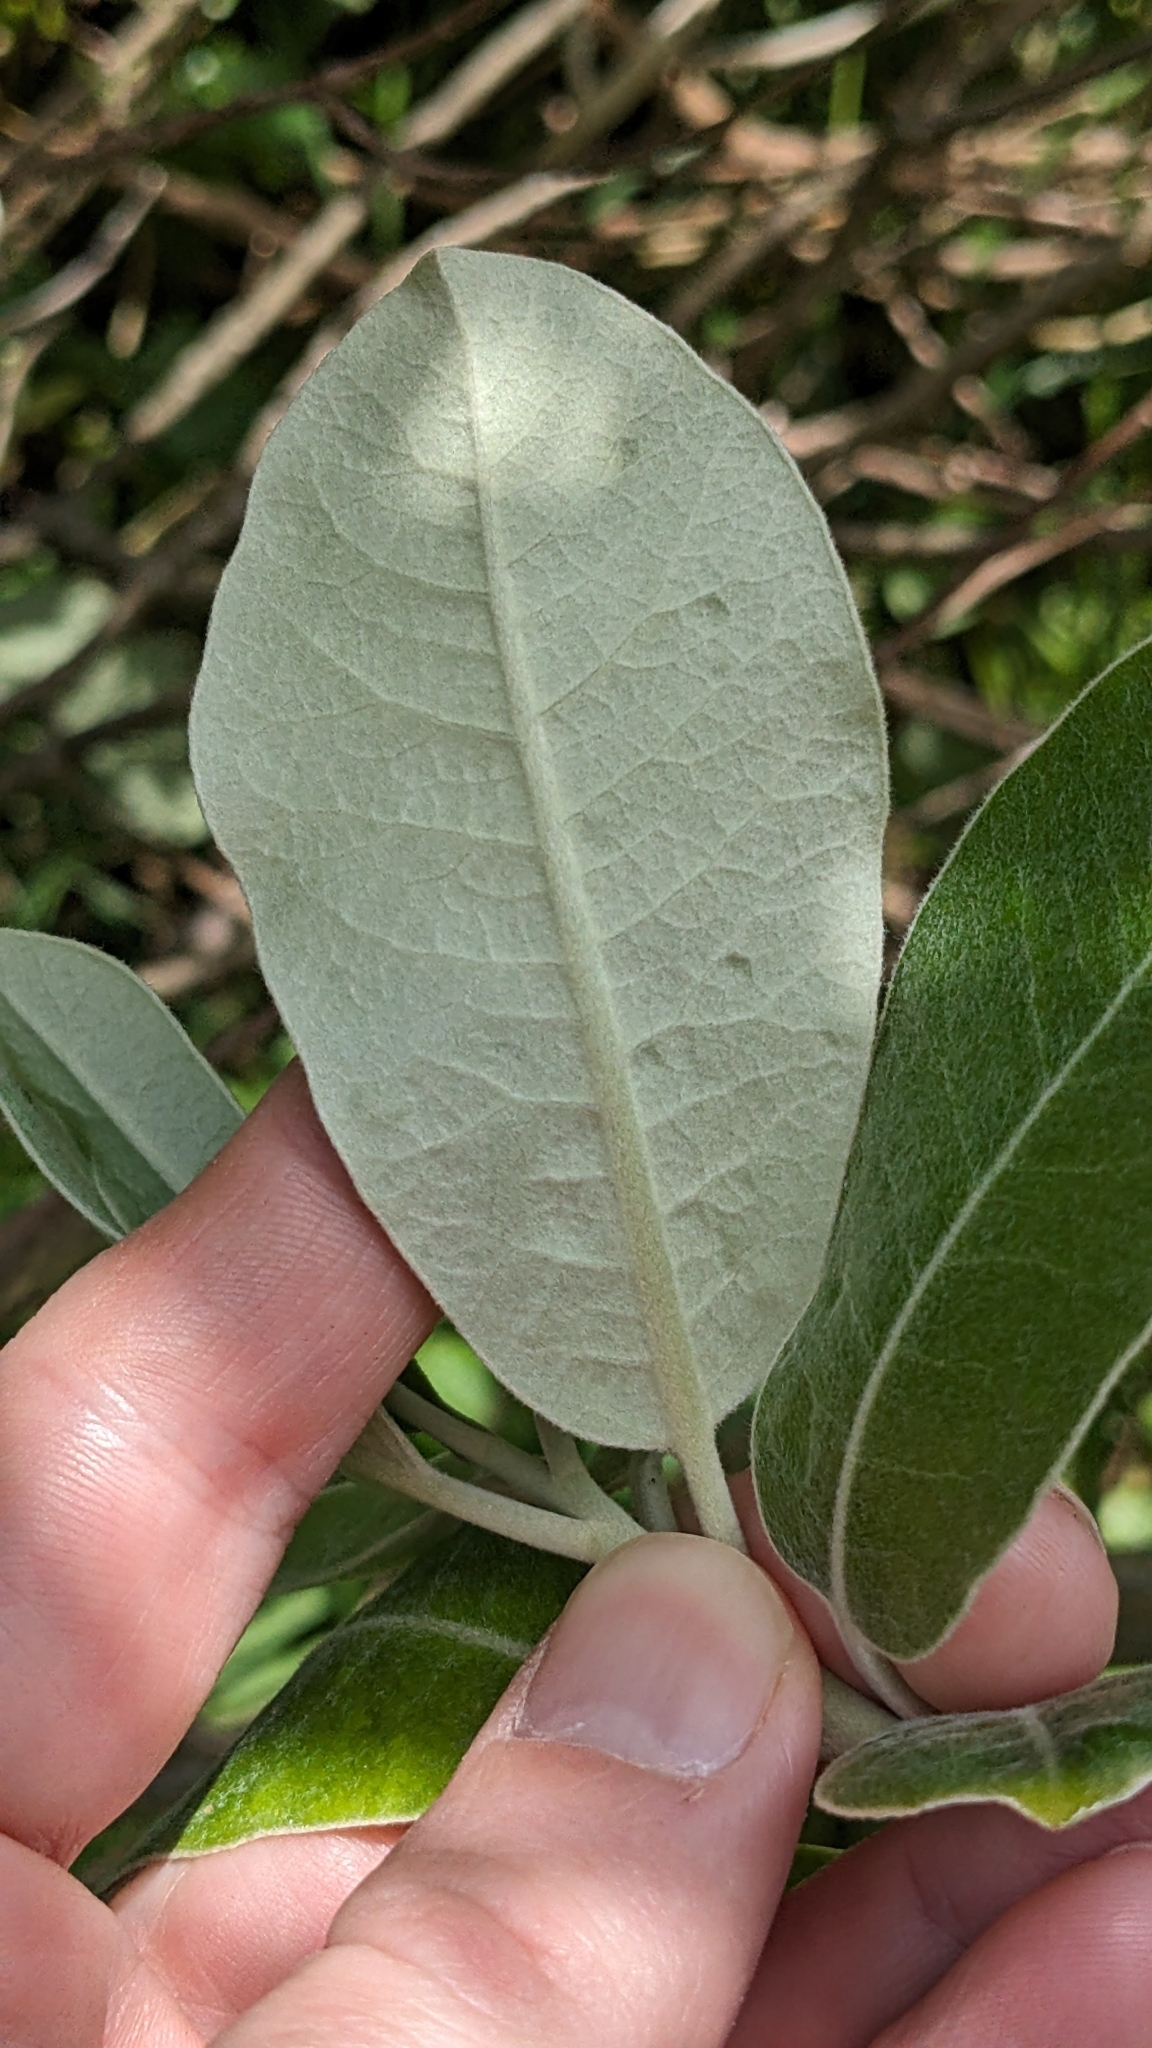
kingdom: Plantae
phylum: Tracheophyta
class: Magnoliopsida
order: Apiales
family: Pittosporaceae
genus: Pittosporum
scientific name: Pittosporum ralphii
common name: Ralph's desertwillow
